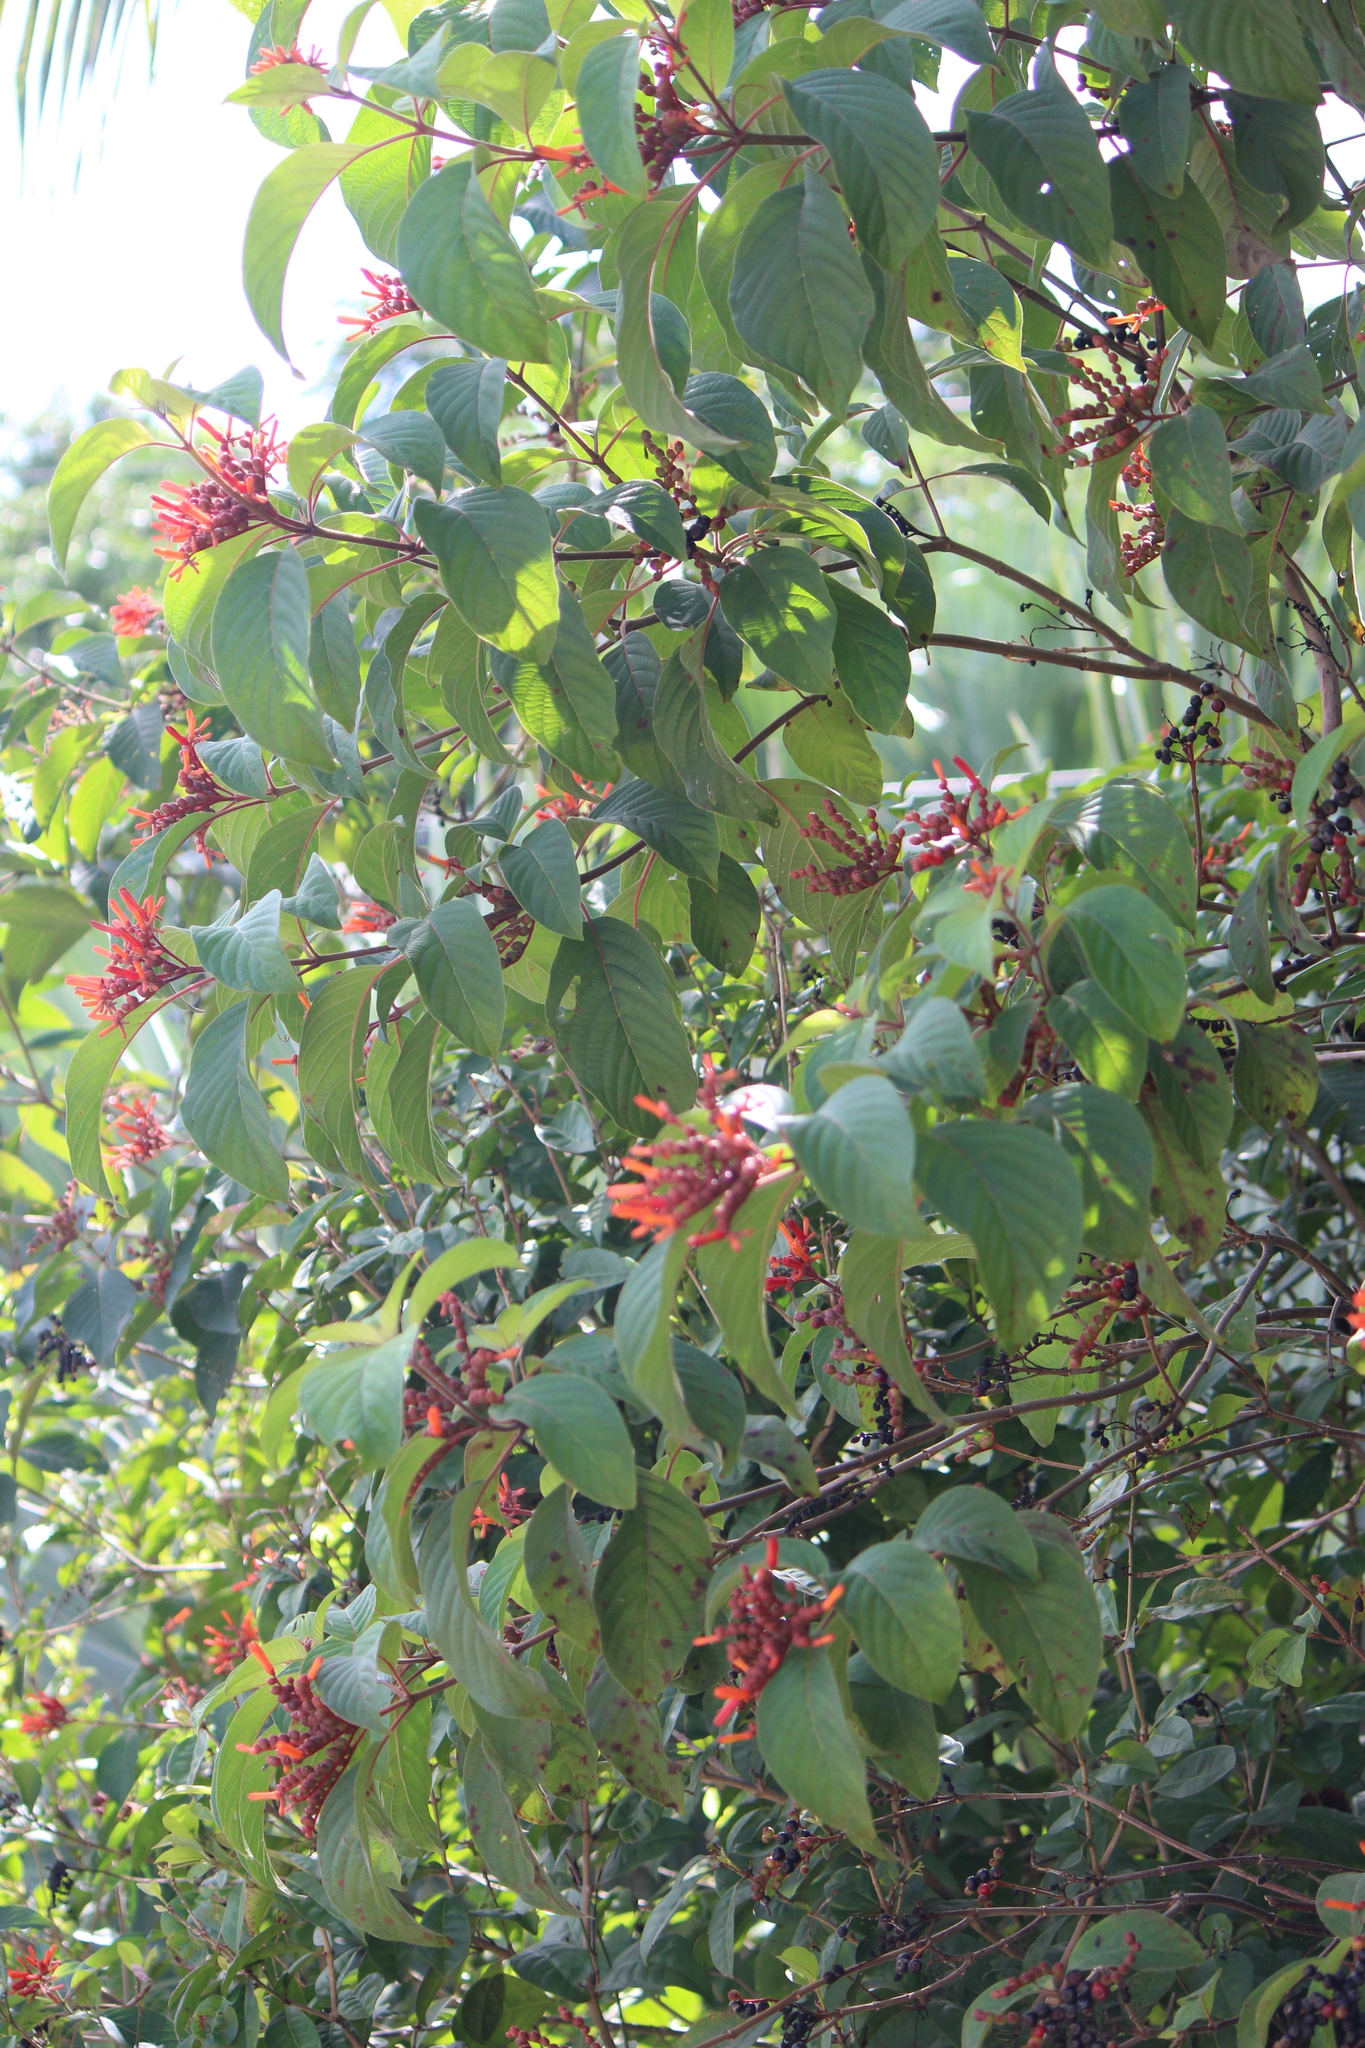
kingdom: Plantae
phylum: Tracheophyta
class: Magnoliopsida
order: Gentianales
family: Rubiaceae
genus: Hamelia
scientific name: Hamelia patens
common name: Redhead
